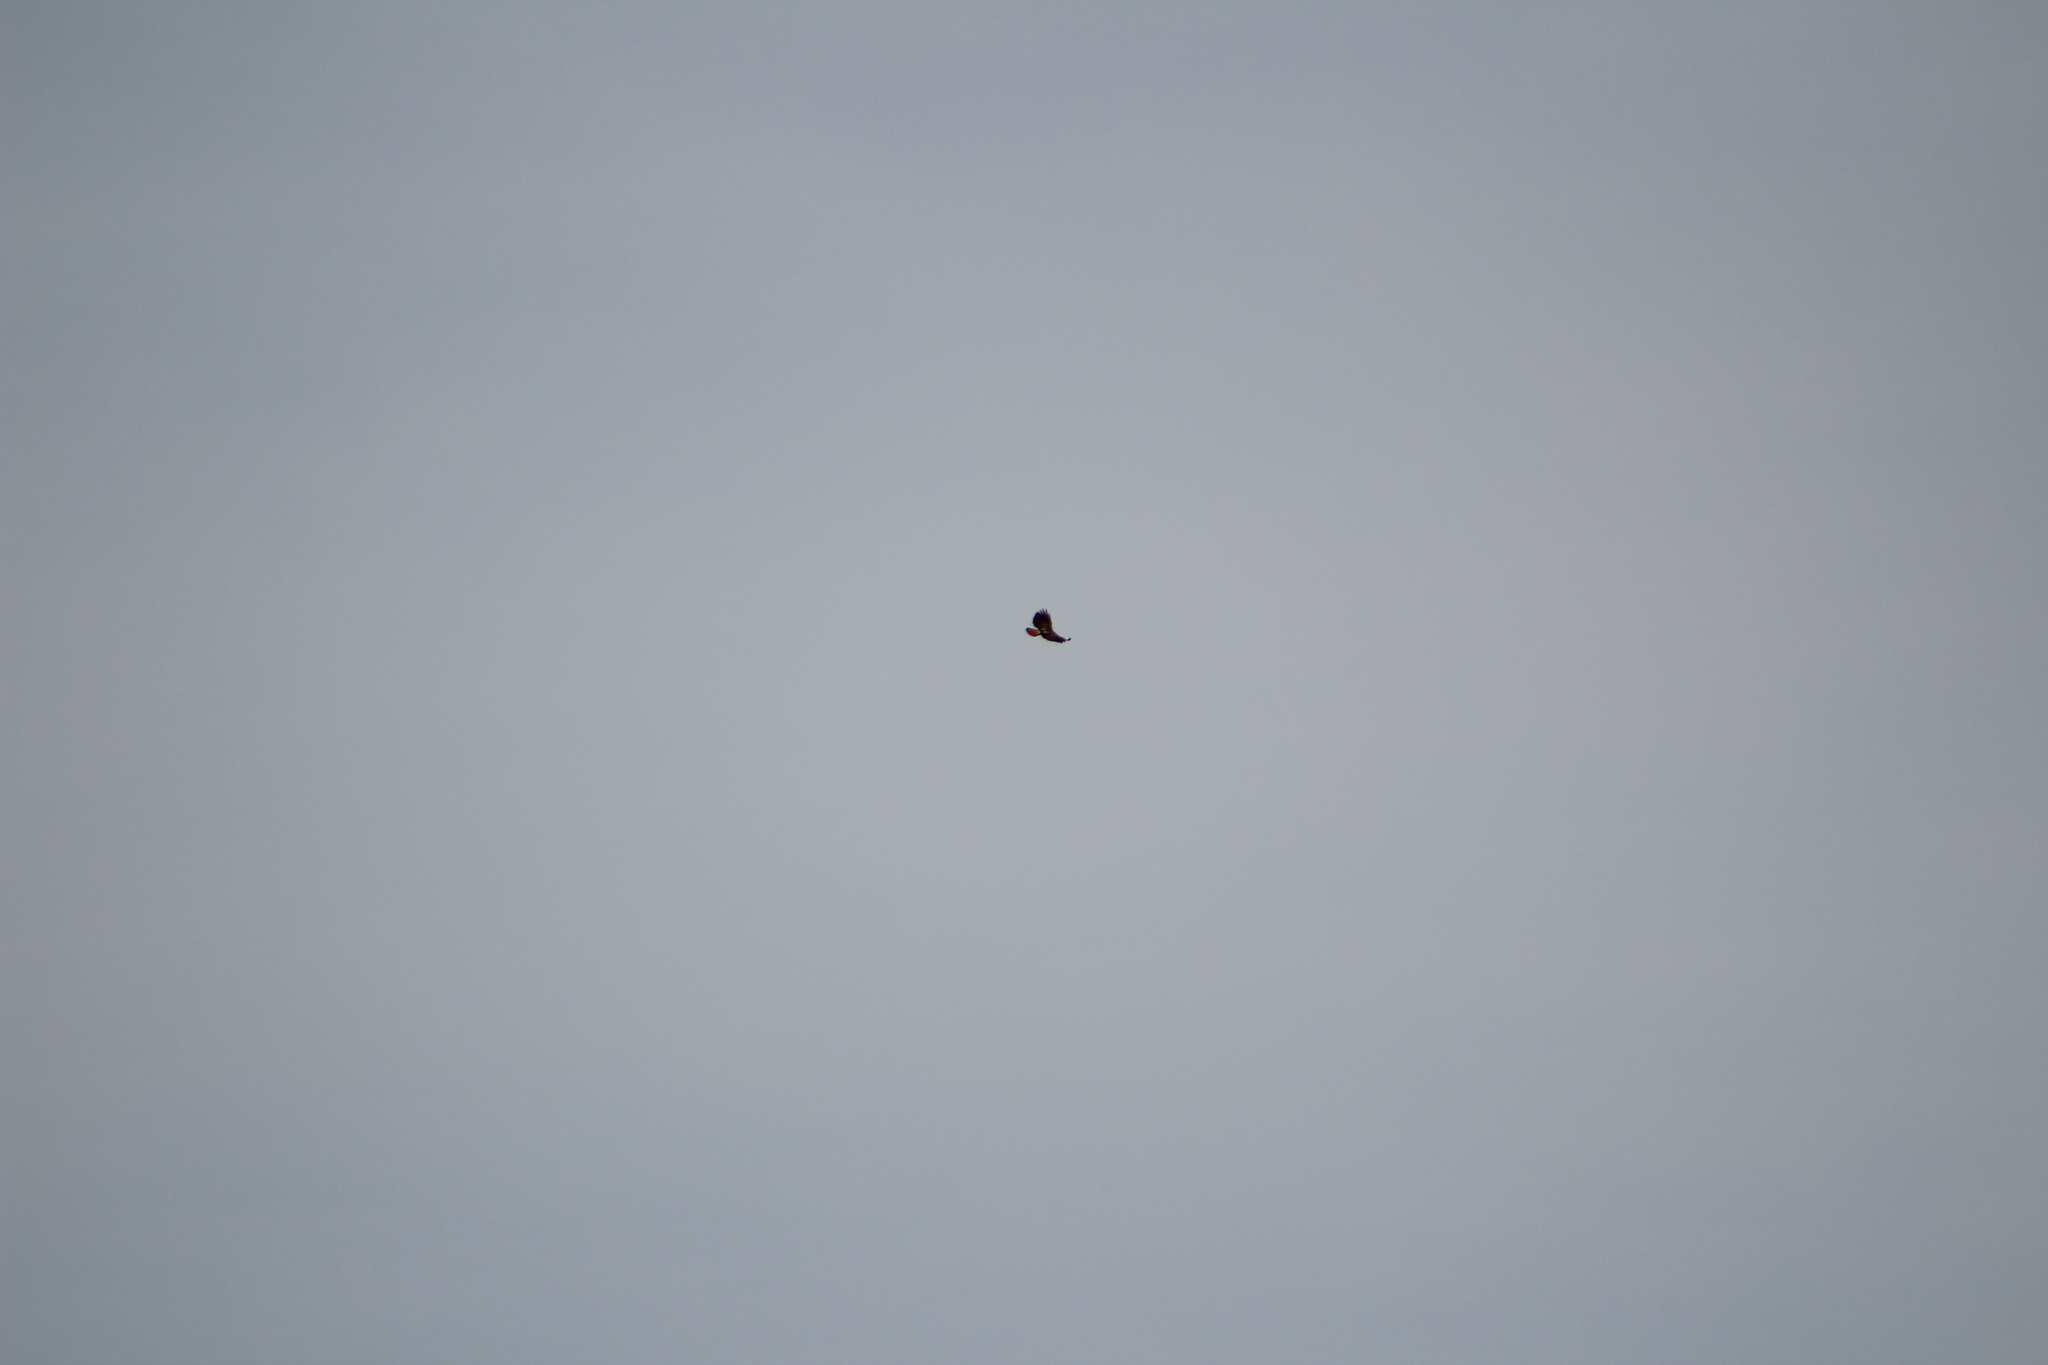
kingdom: Animalia
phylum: Chordata
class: Aves
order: Accipitriformes
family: Accipitridae
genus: Buteo
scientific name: Buteo jamaicensis
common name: Red-tailed hawk
